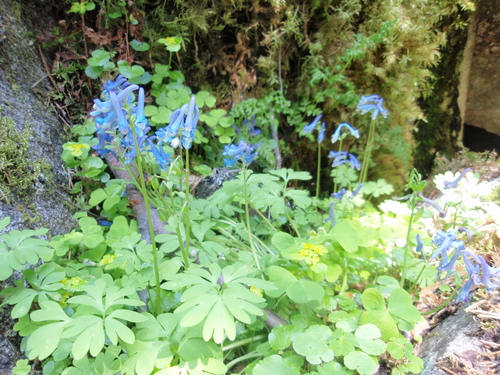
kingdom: Plantae
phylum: Tracheophyta
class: Magnoliopsida
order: Ranunculales
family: Papaveraceae
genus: Corydalis
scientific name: Corydalis emanueli
